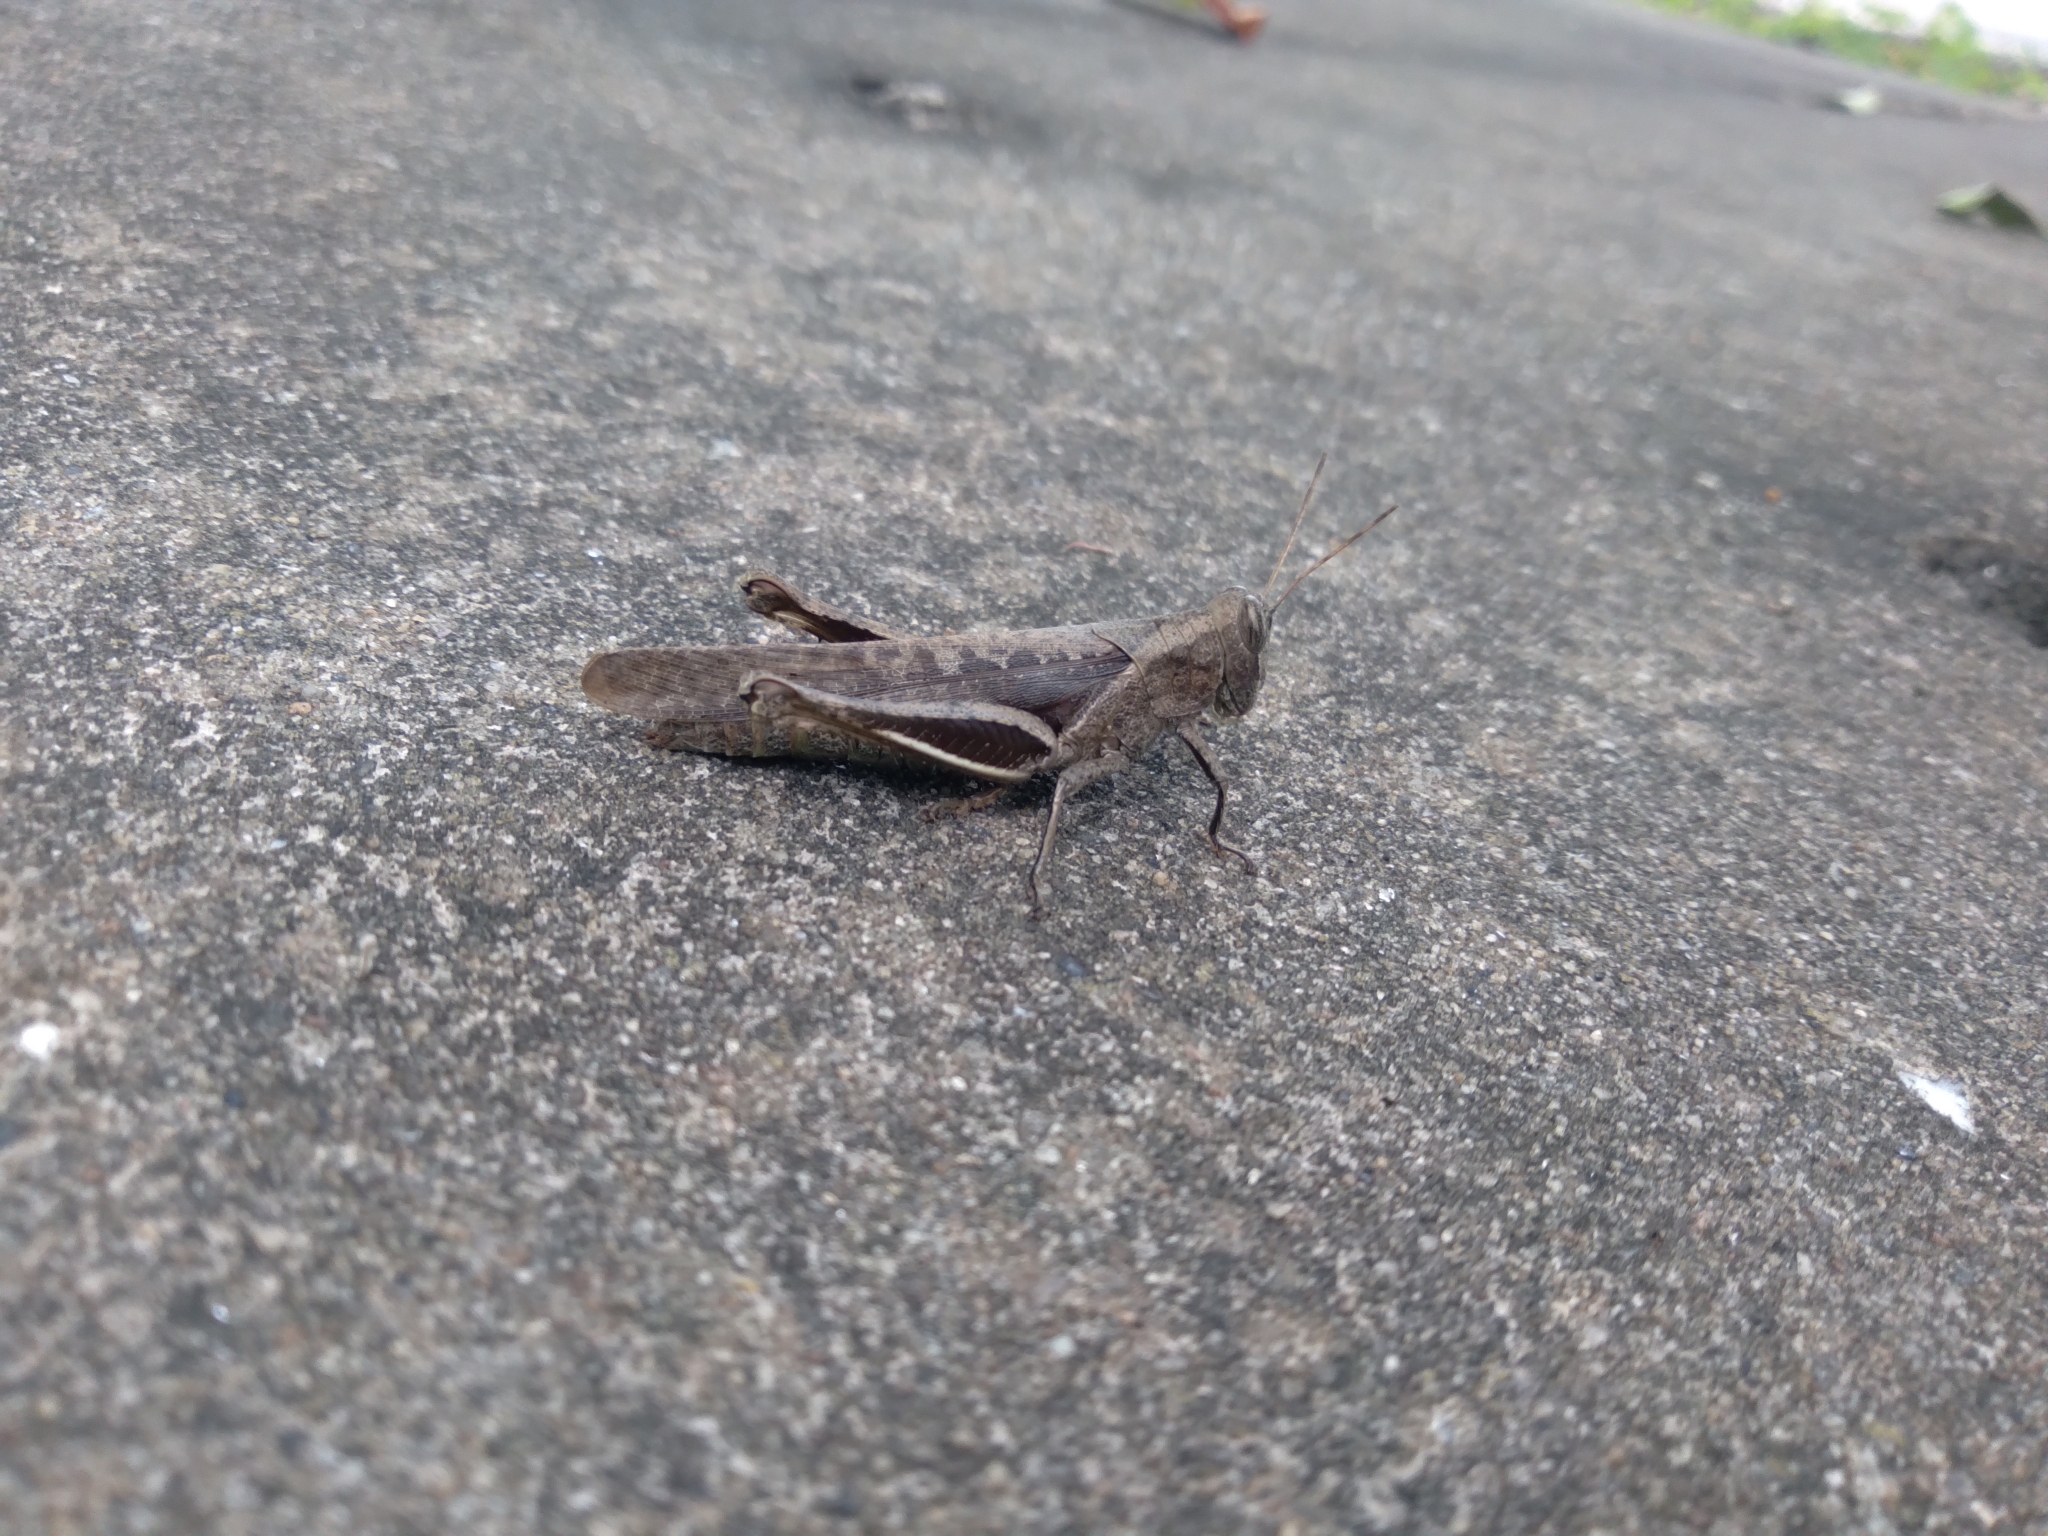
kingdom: Animalia
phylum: Arthropoda
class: Insecta
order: Orthoptera
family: Acrididae
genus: Abracris
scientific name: Abracris flavolineata
